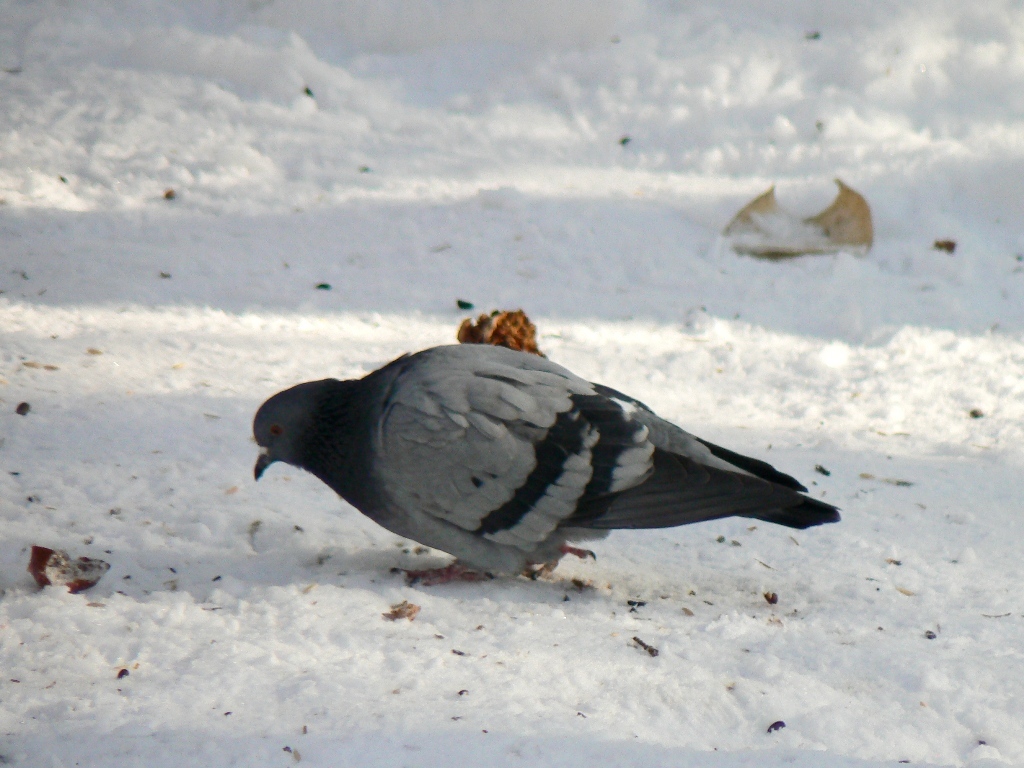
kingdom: Animalia
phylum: Chordata
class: Aves
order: Columbiformes
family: Columbidae
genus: Columba
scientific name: Columba livia
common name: Rock pigeon
